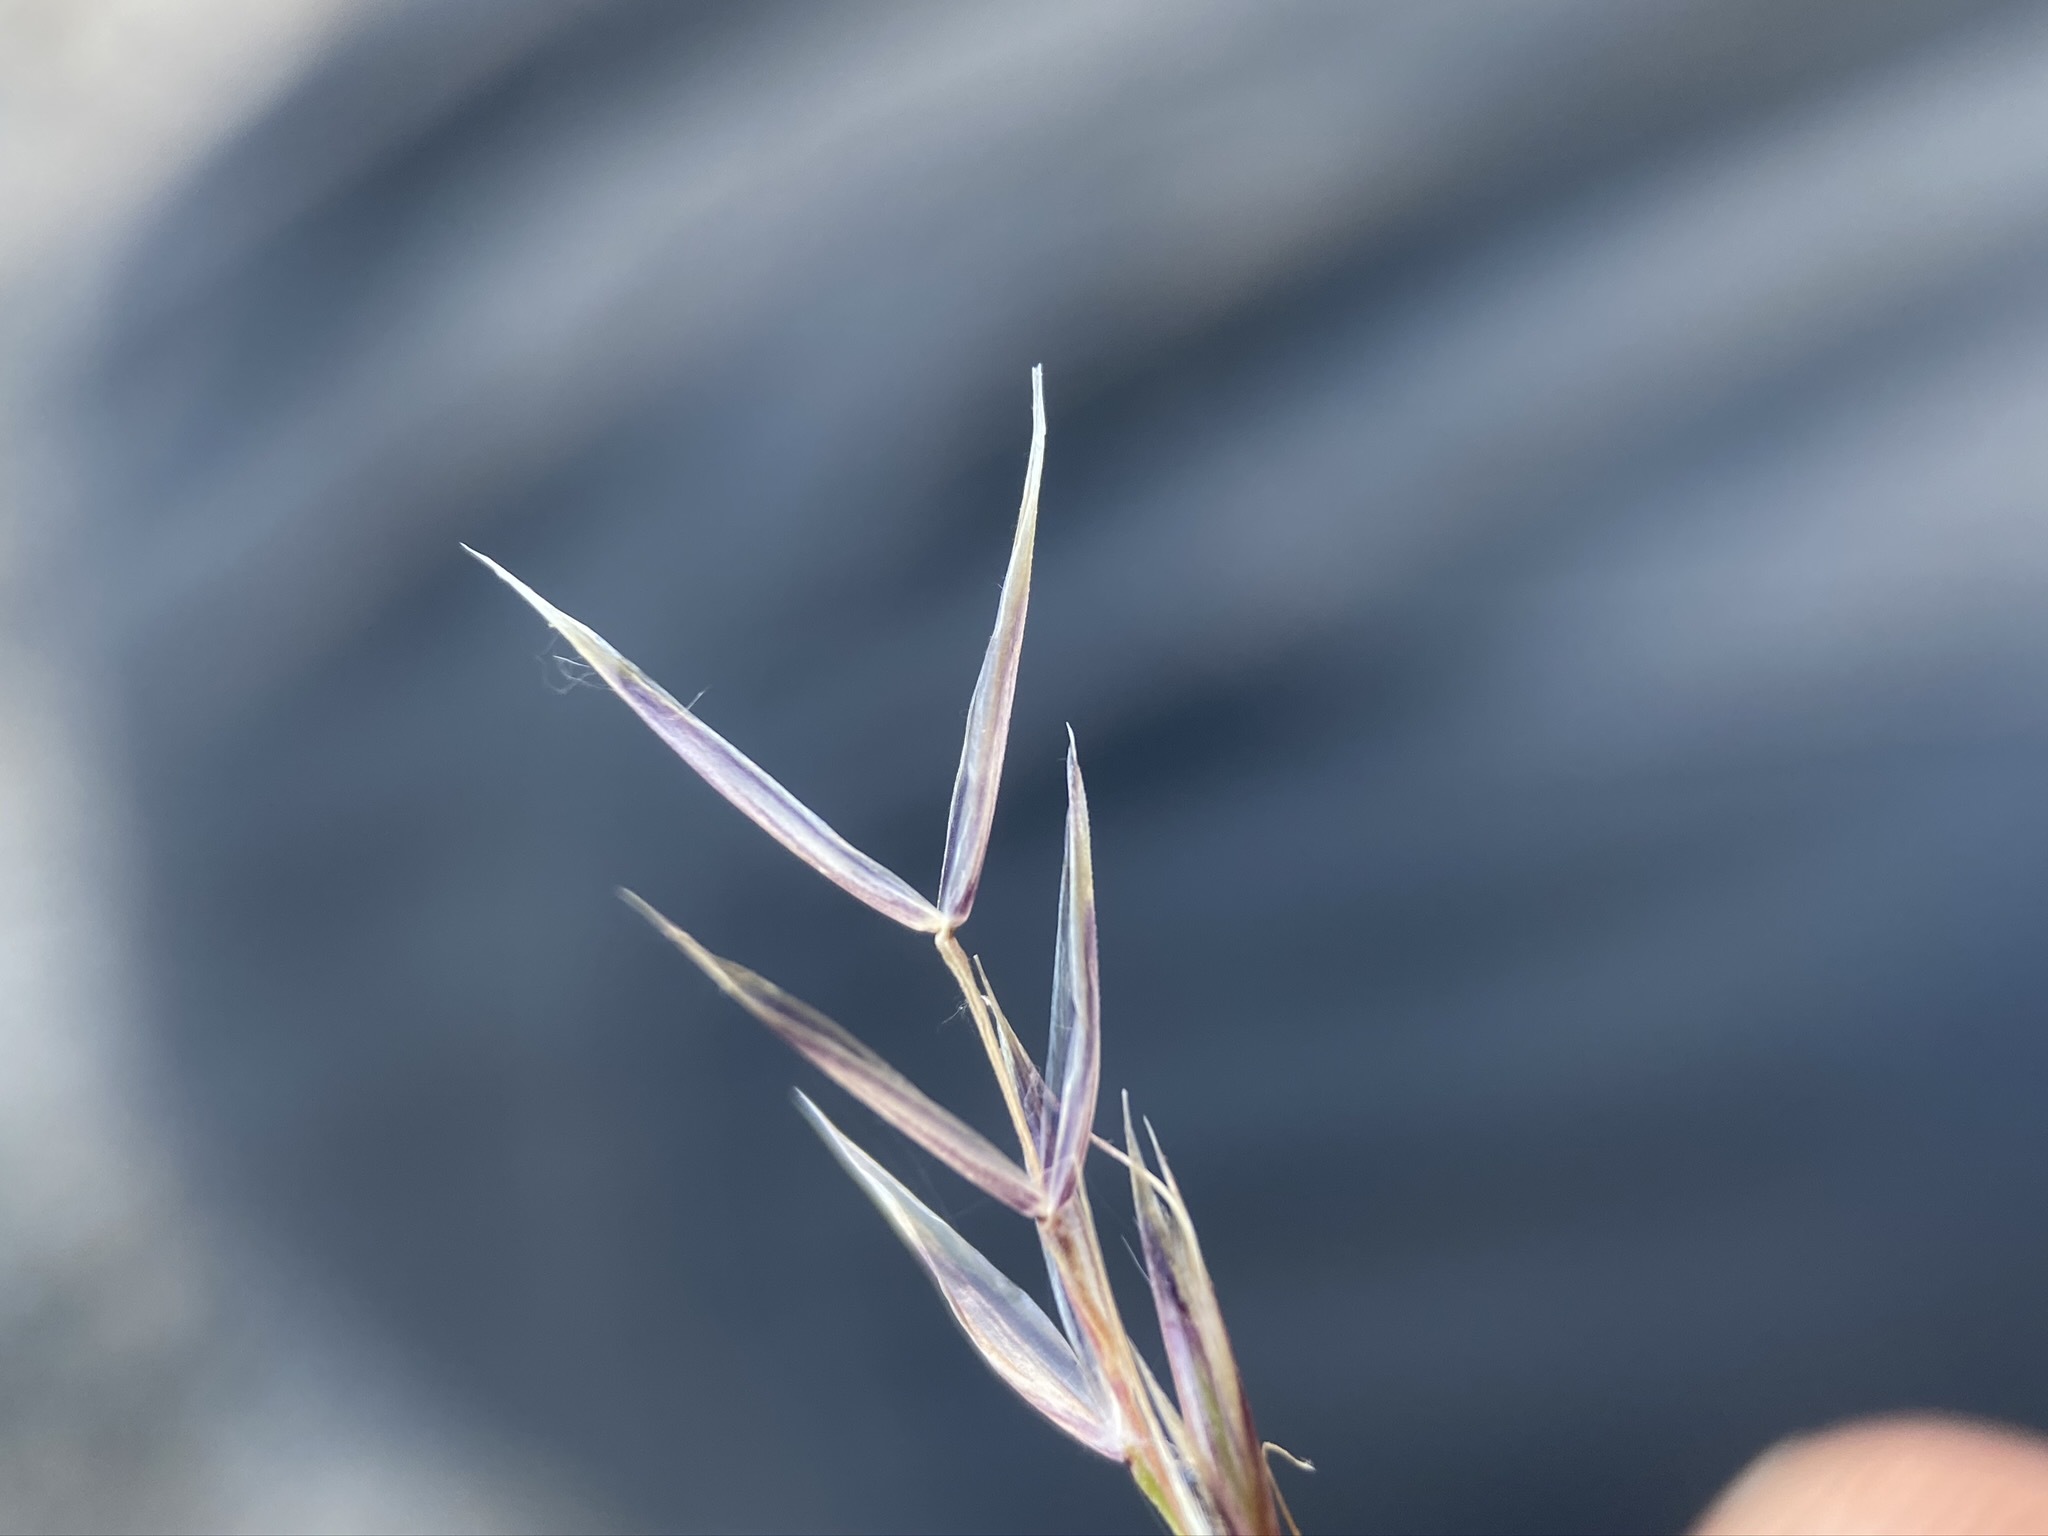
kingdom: Plantae
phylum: Tracheophyta
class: Liliopsida
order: Poales
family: Poaceae
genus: Eriocoma
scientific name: Eriocoma webberi
